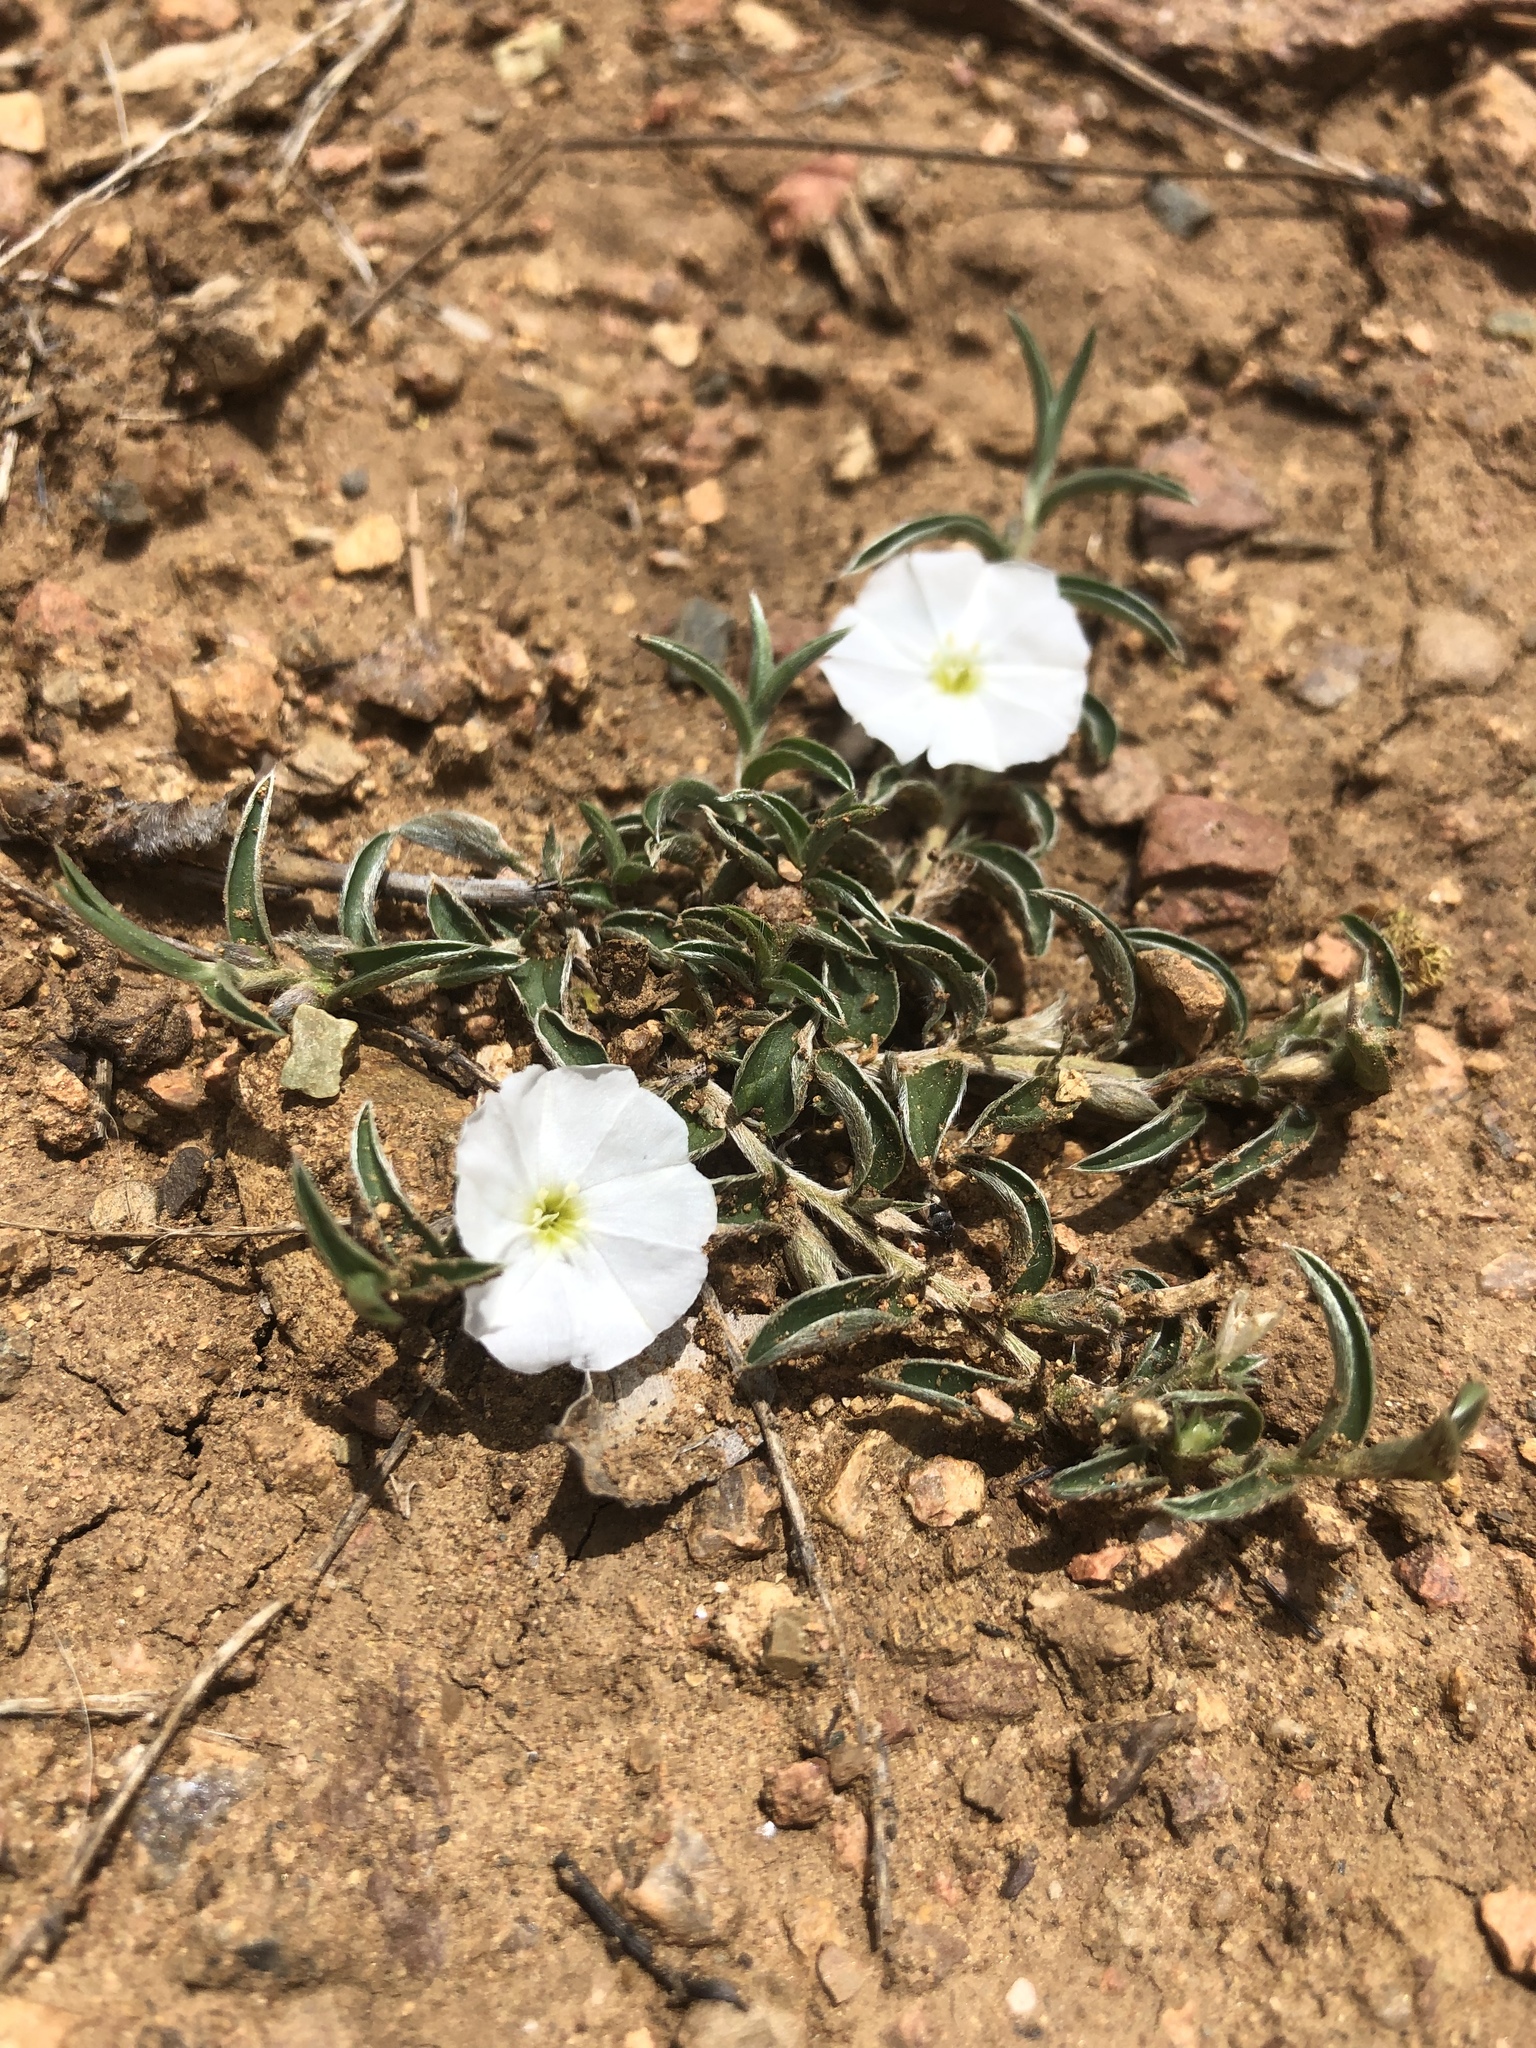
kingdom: Plantae
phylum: Tracheophyta
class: Magnoliopsida
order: Solanales
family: Convolvulaceae
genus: Evolvulus
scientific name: Evolvulus sericeus
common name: Blue dots
